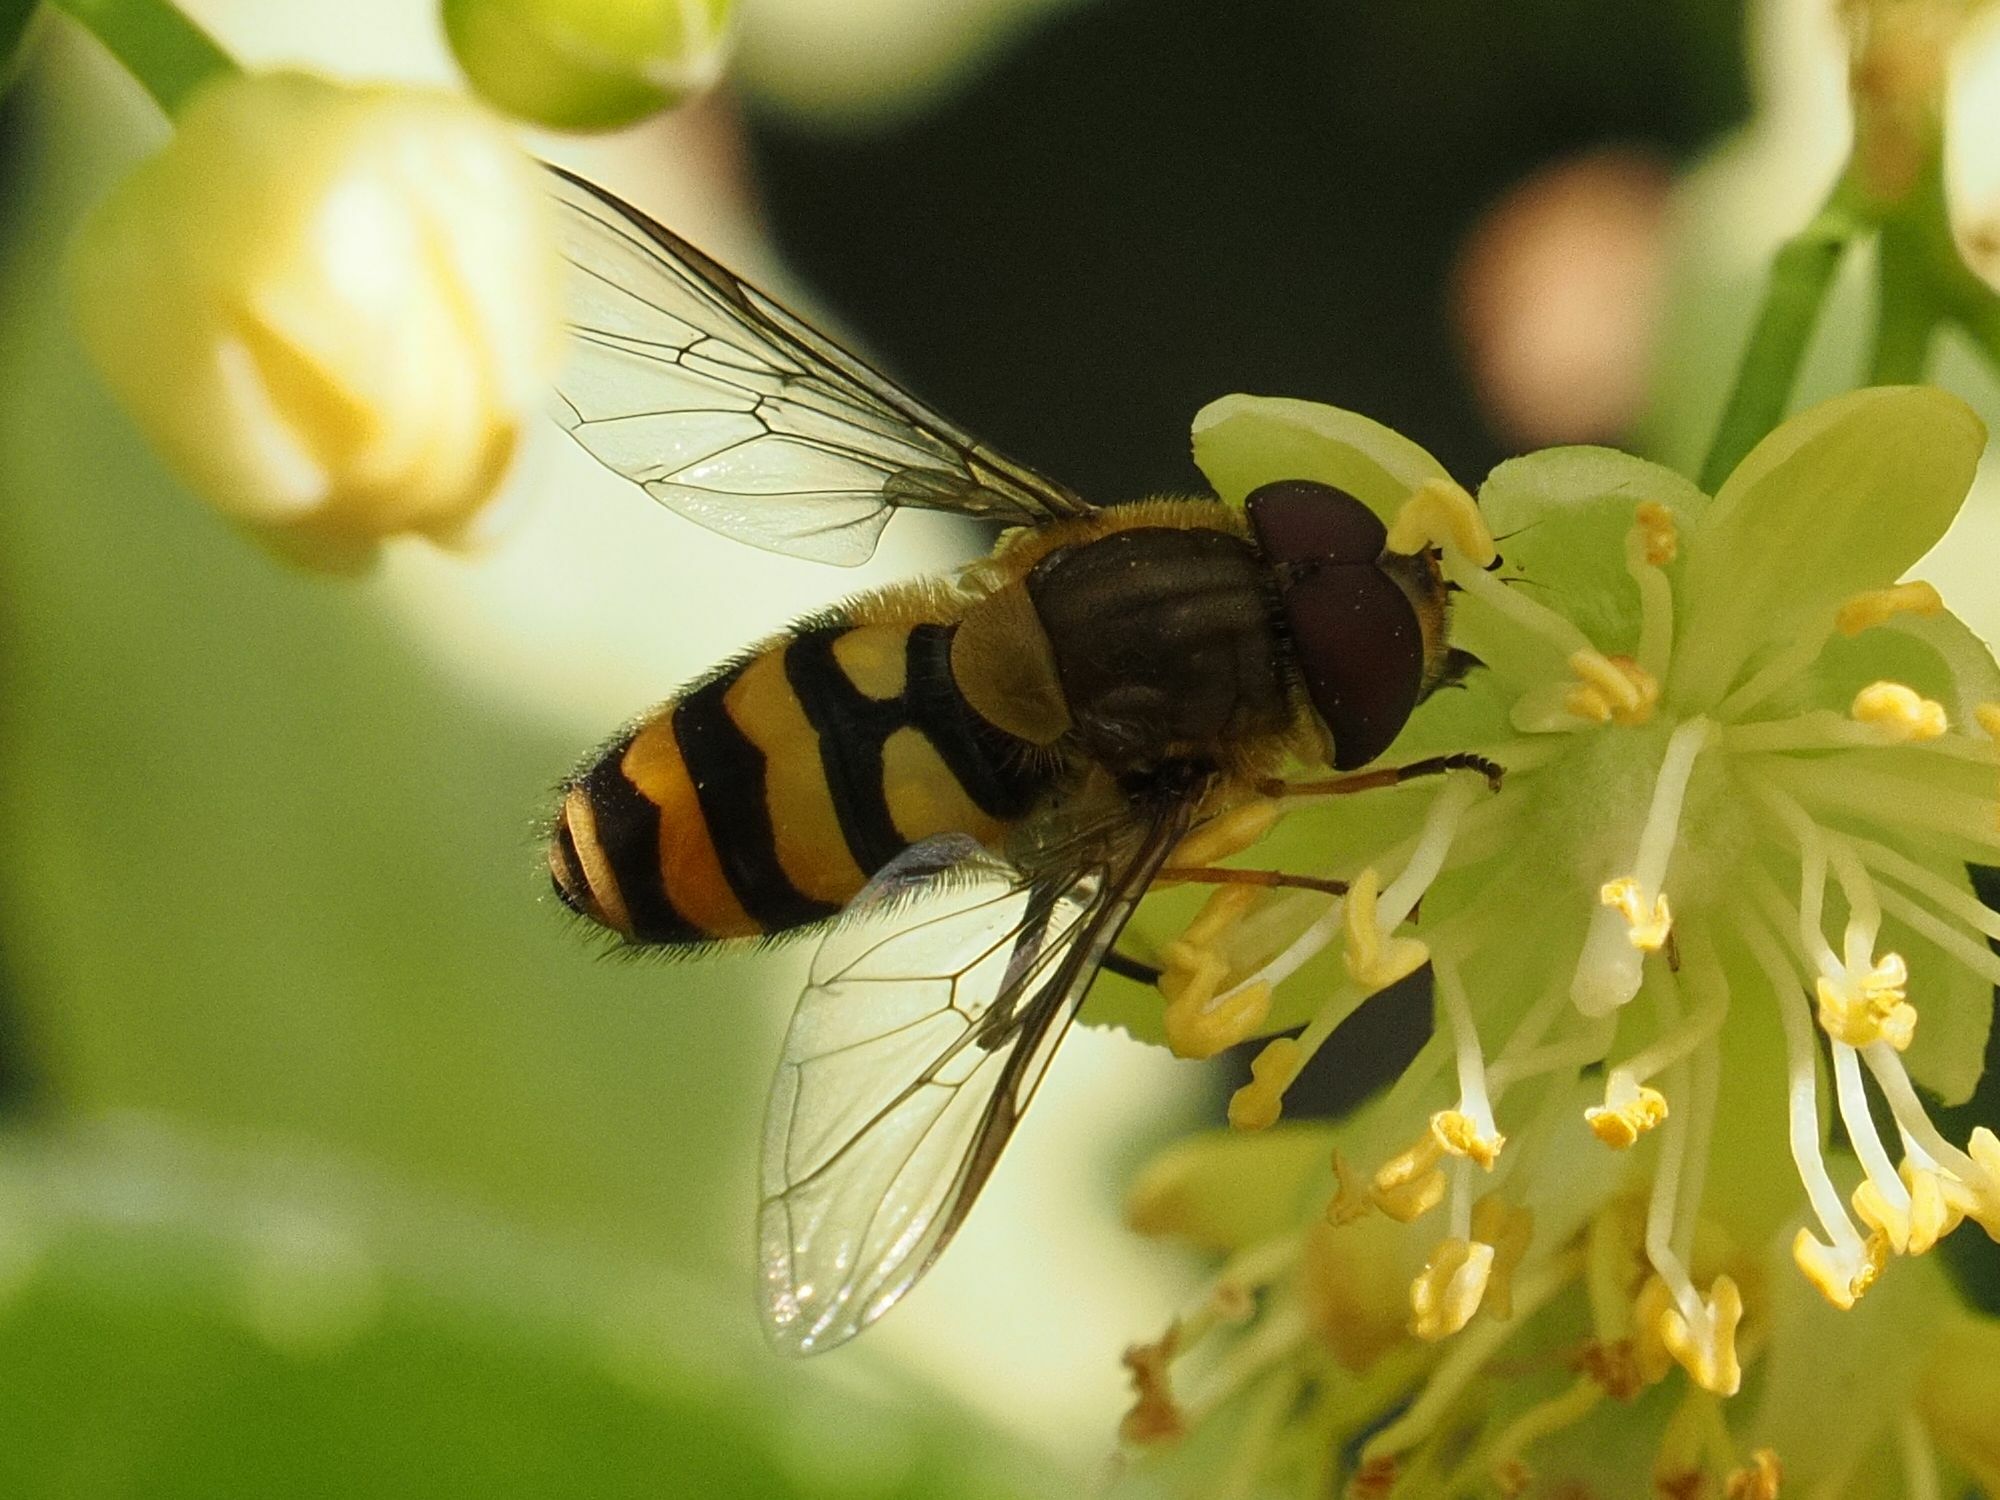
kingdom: Animalia
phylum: Arthropoda
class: Insecta
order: Diptera
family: Syrphidae
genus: Syrphus
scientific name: Syrphus
